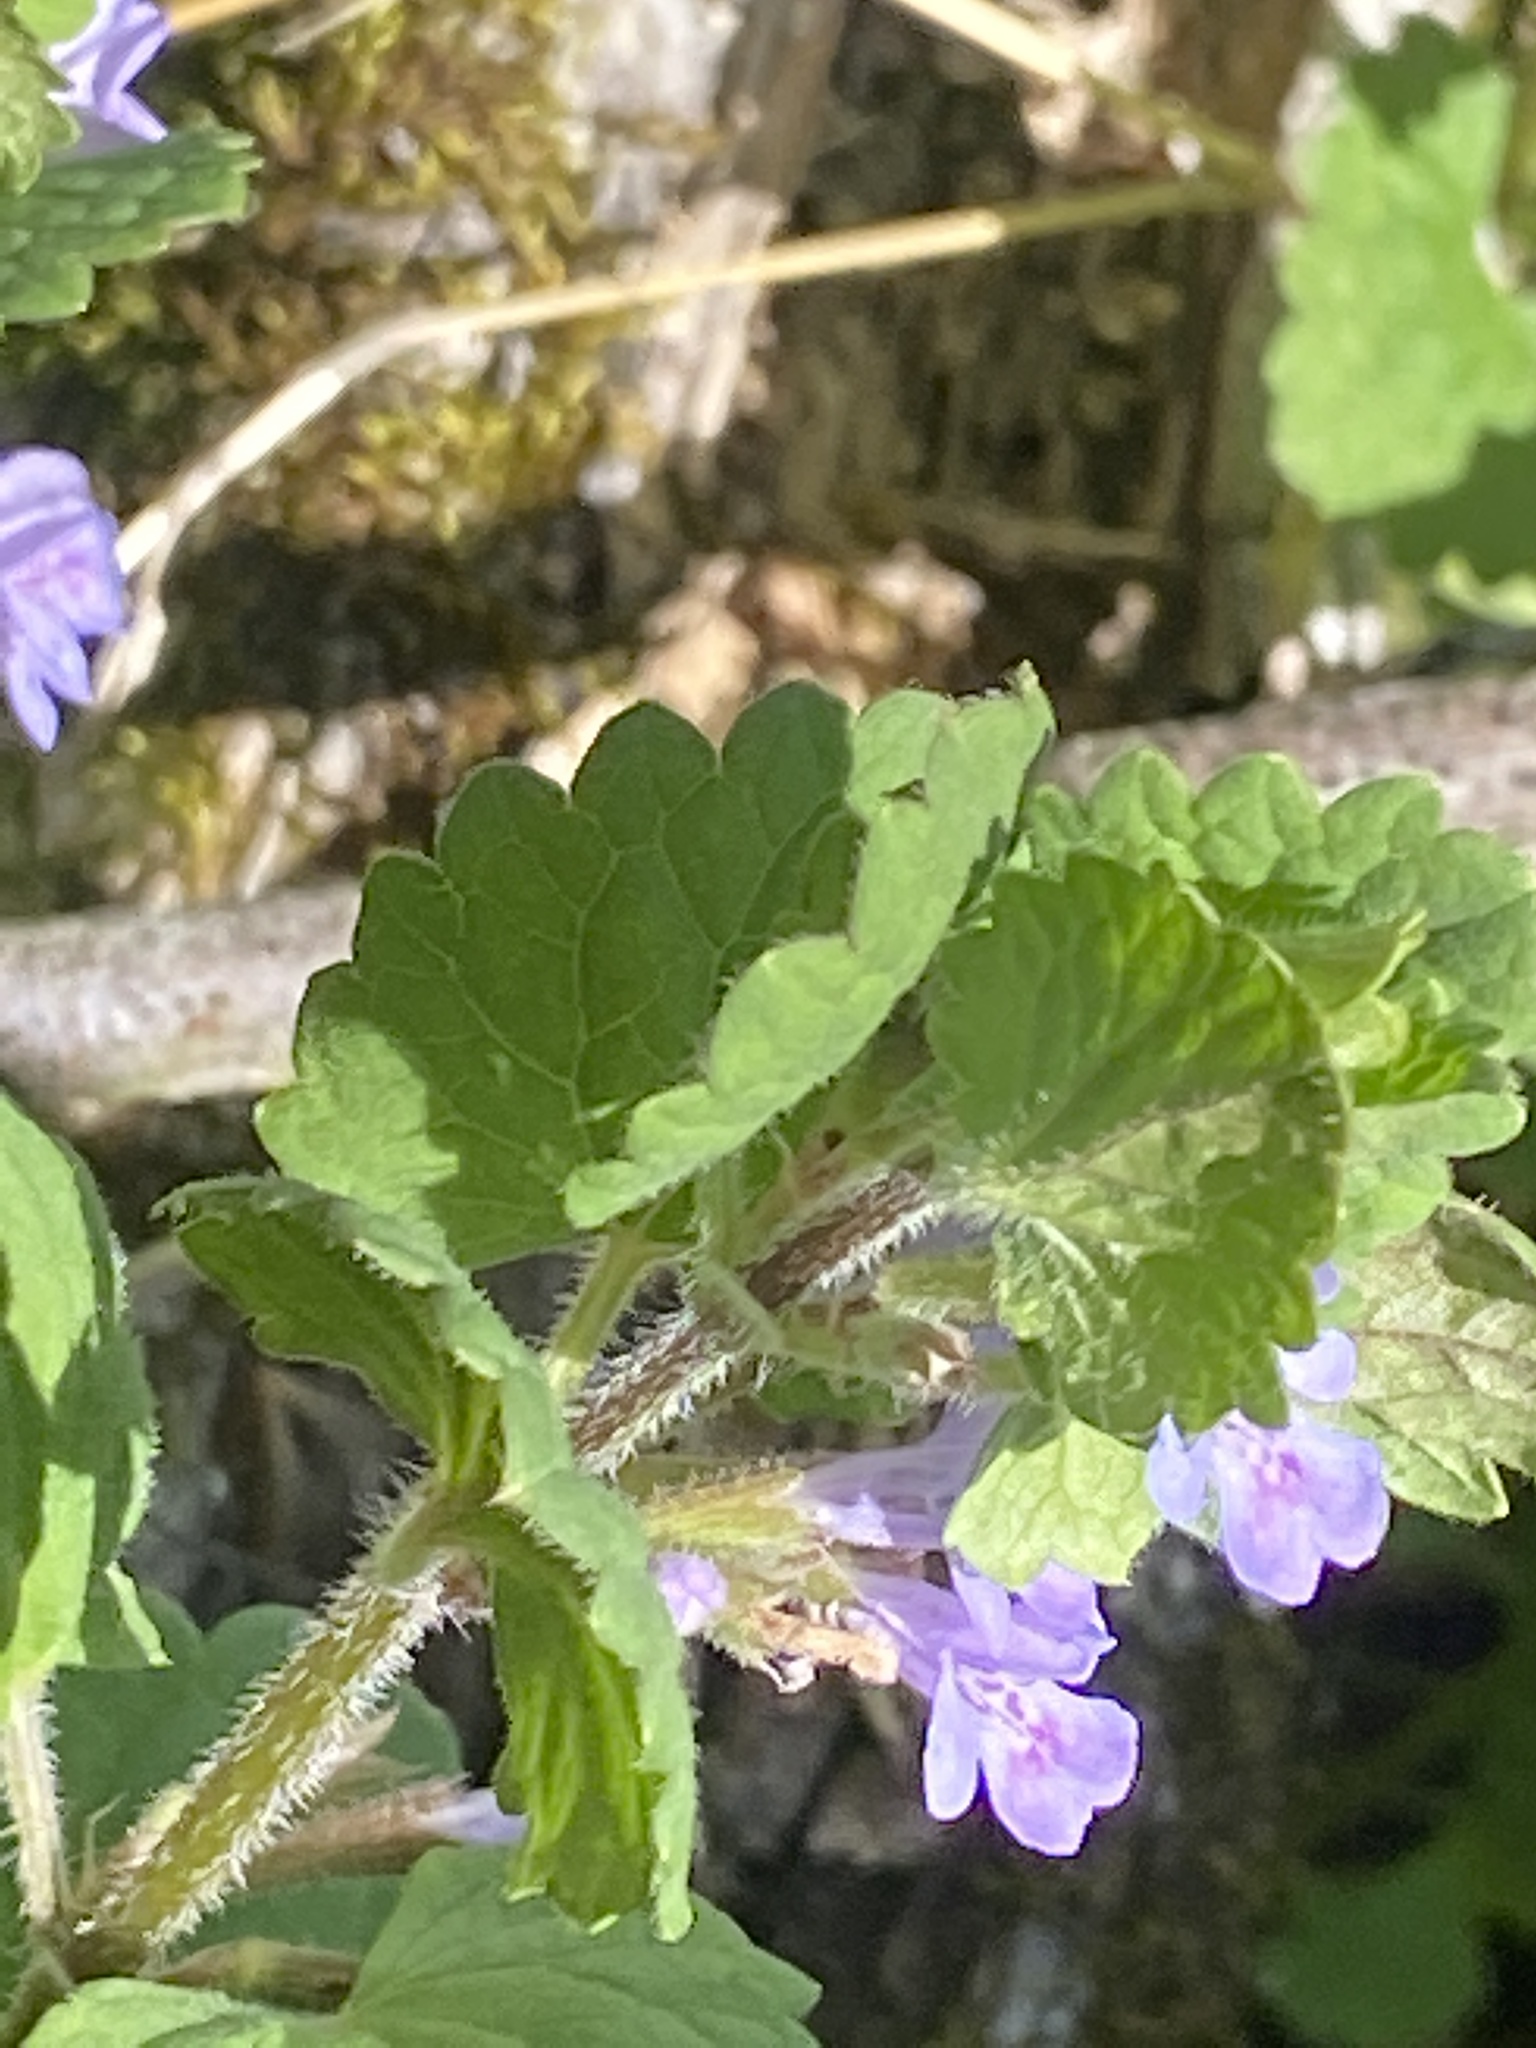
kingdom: Plantae
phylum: Tracheophyta
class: Magnoliopsida
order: Lamiales
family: Lamiaceae
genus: Glechoma
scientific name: Glechoma hederacea
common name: Ground ivy
